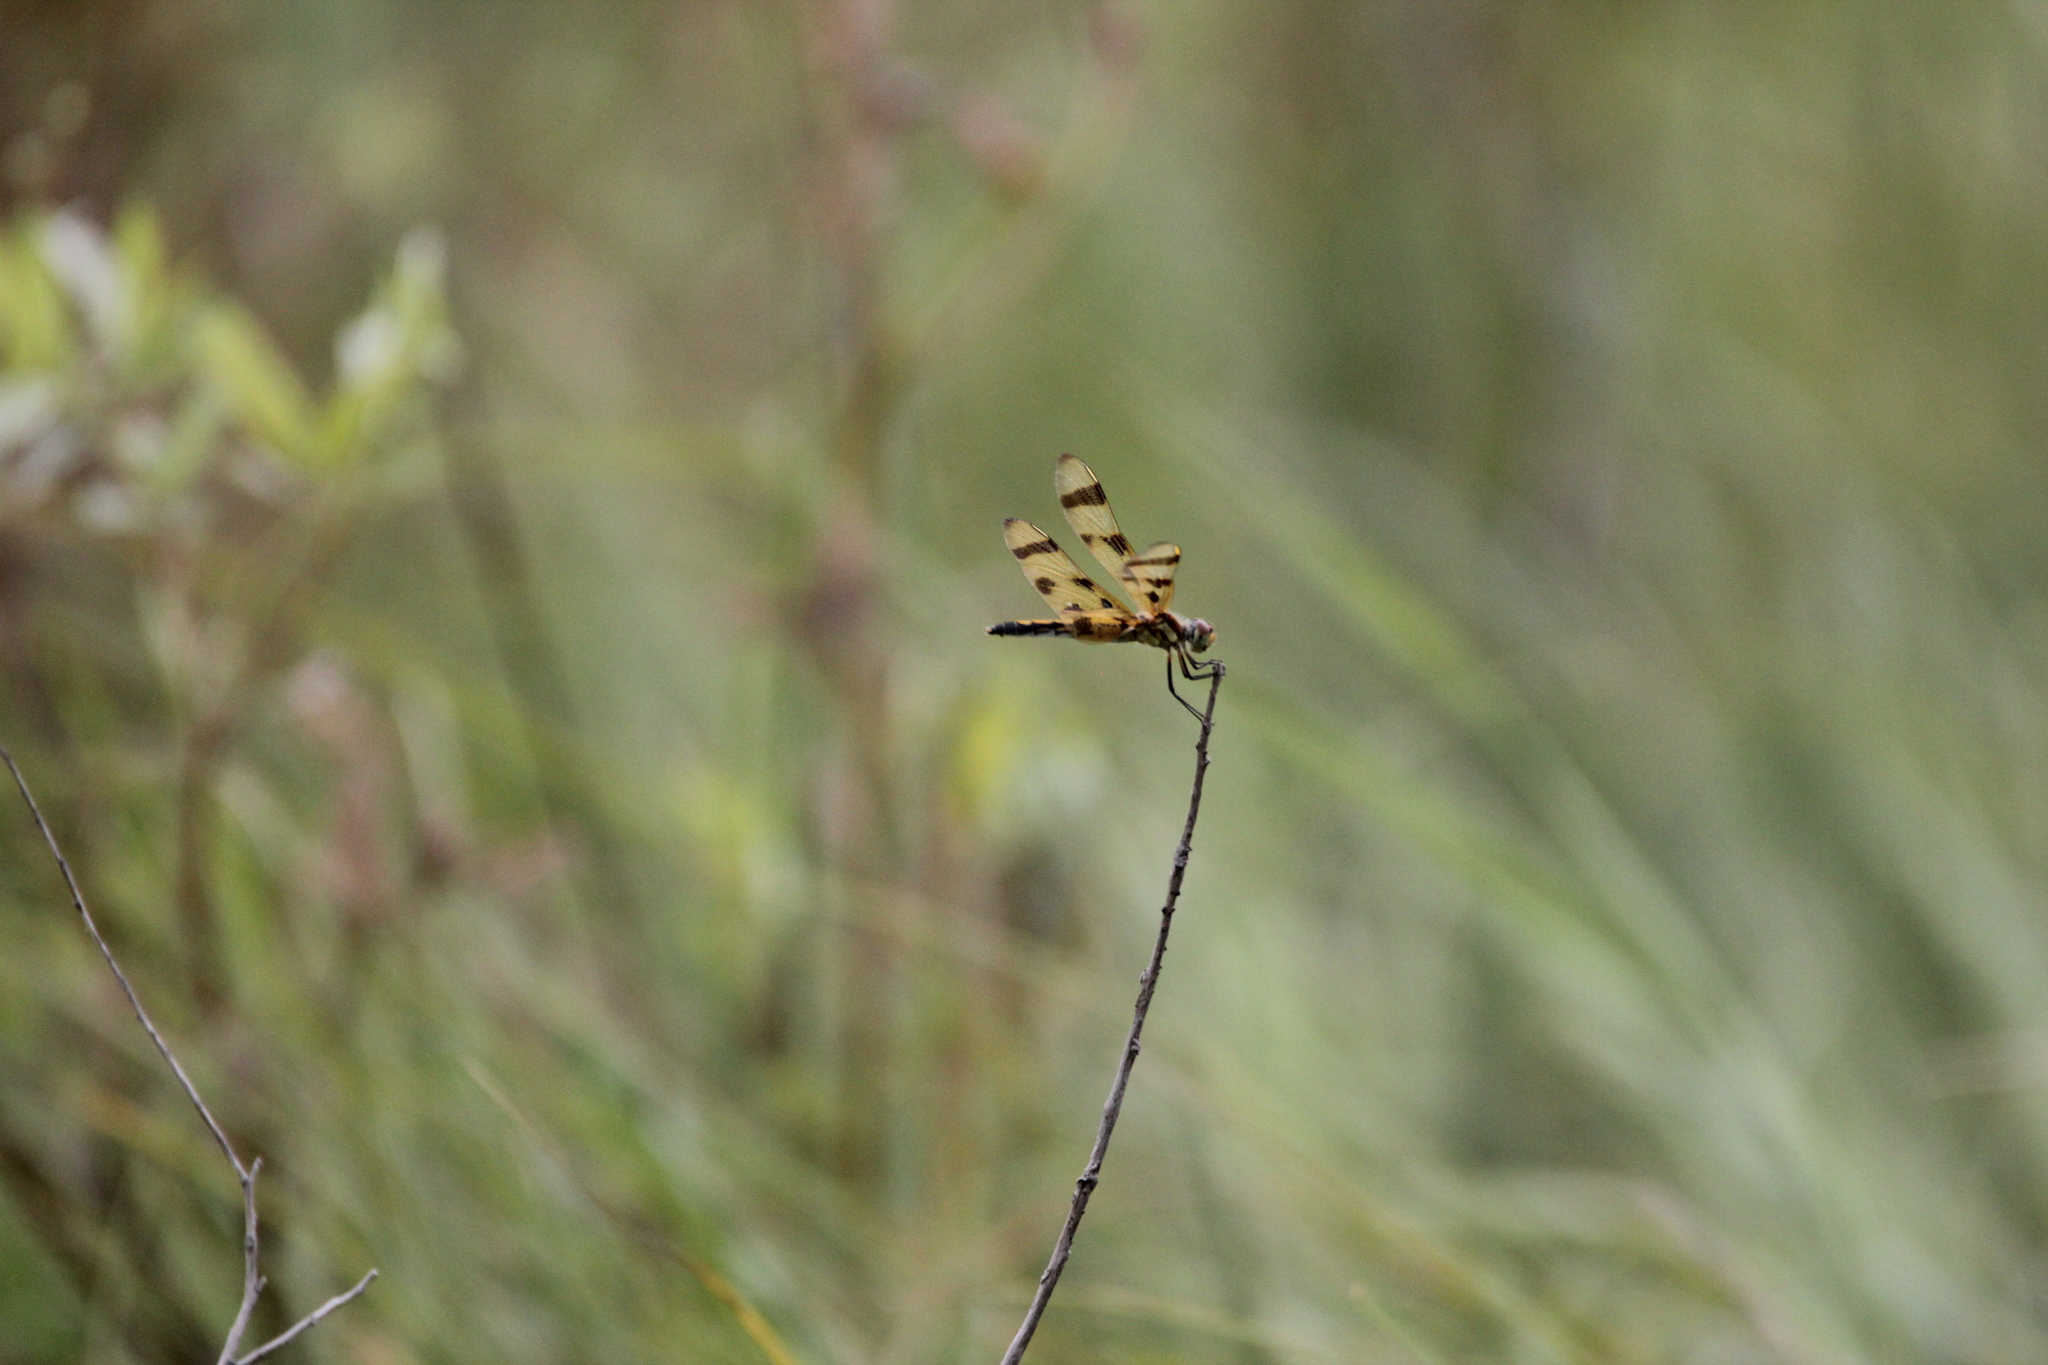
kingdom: Animalia
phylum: Arthropoda
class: Insecta
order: Odonata
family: Libellulidae
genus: Celithemis
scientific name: Celithemis eponina
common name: Halloween pennant
